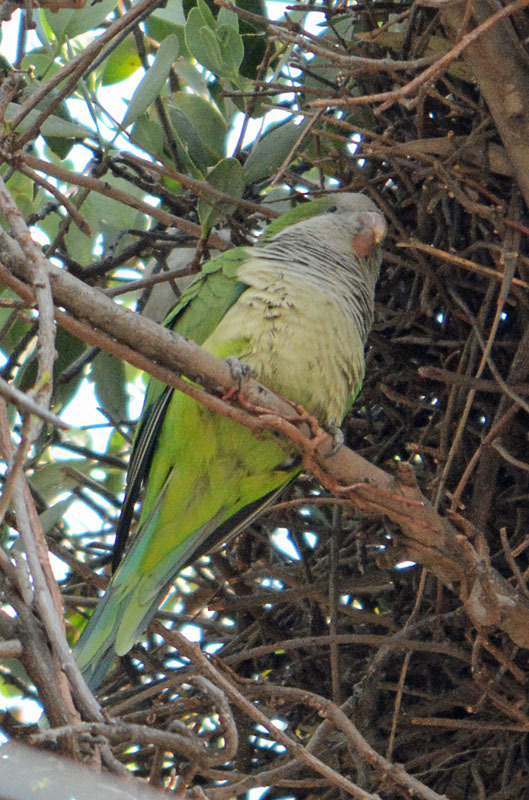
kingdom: Animalia
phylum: Chordata
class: Aves
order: Psittaciformes
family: Psittacidae
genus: Myiopsitta
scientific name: Myiopsitta monachus
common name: Monk parakeet
